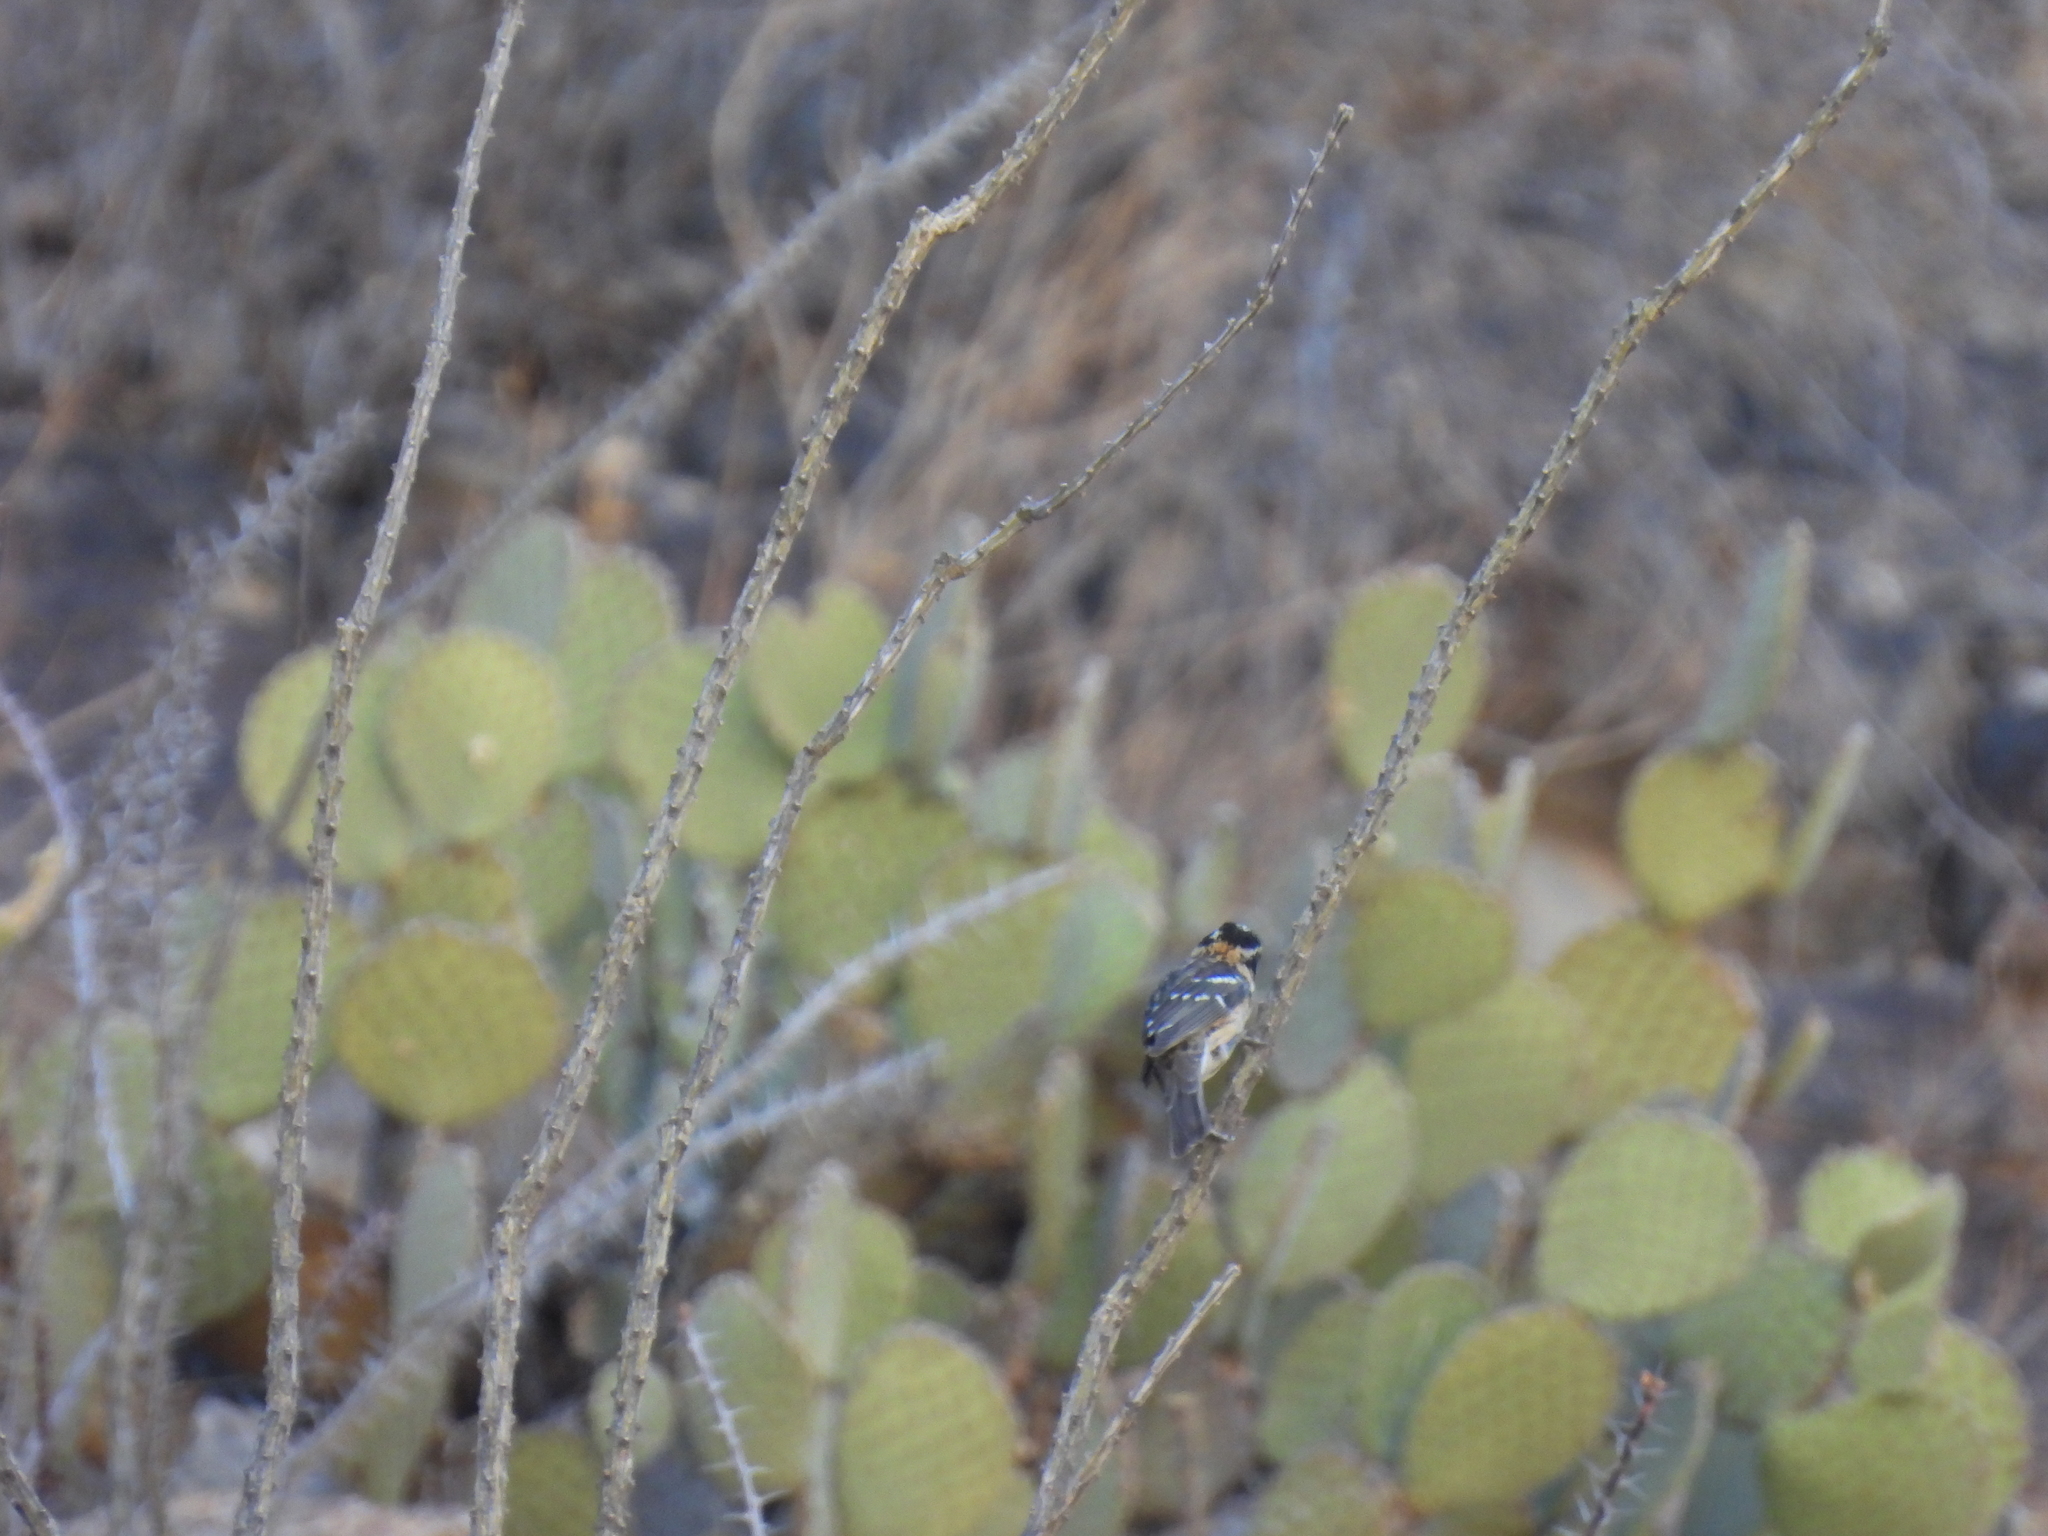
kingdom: Animalia
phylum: Chordata
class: Aves
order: Passeriformes
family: Cardinalidae
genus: Pheucticus
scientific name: Pheucticus melanocephalus
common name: Black-headed grosbeak
